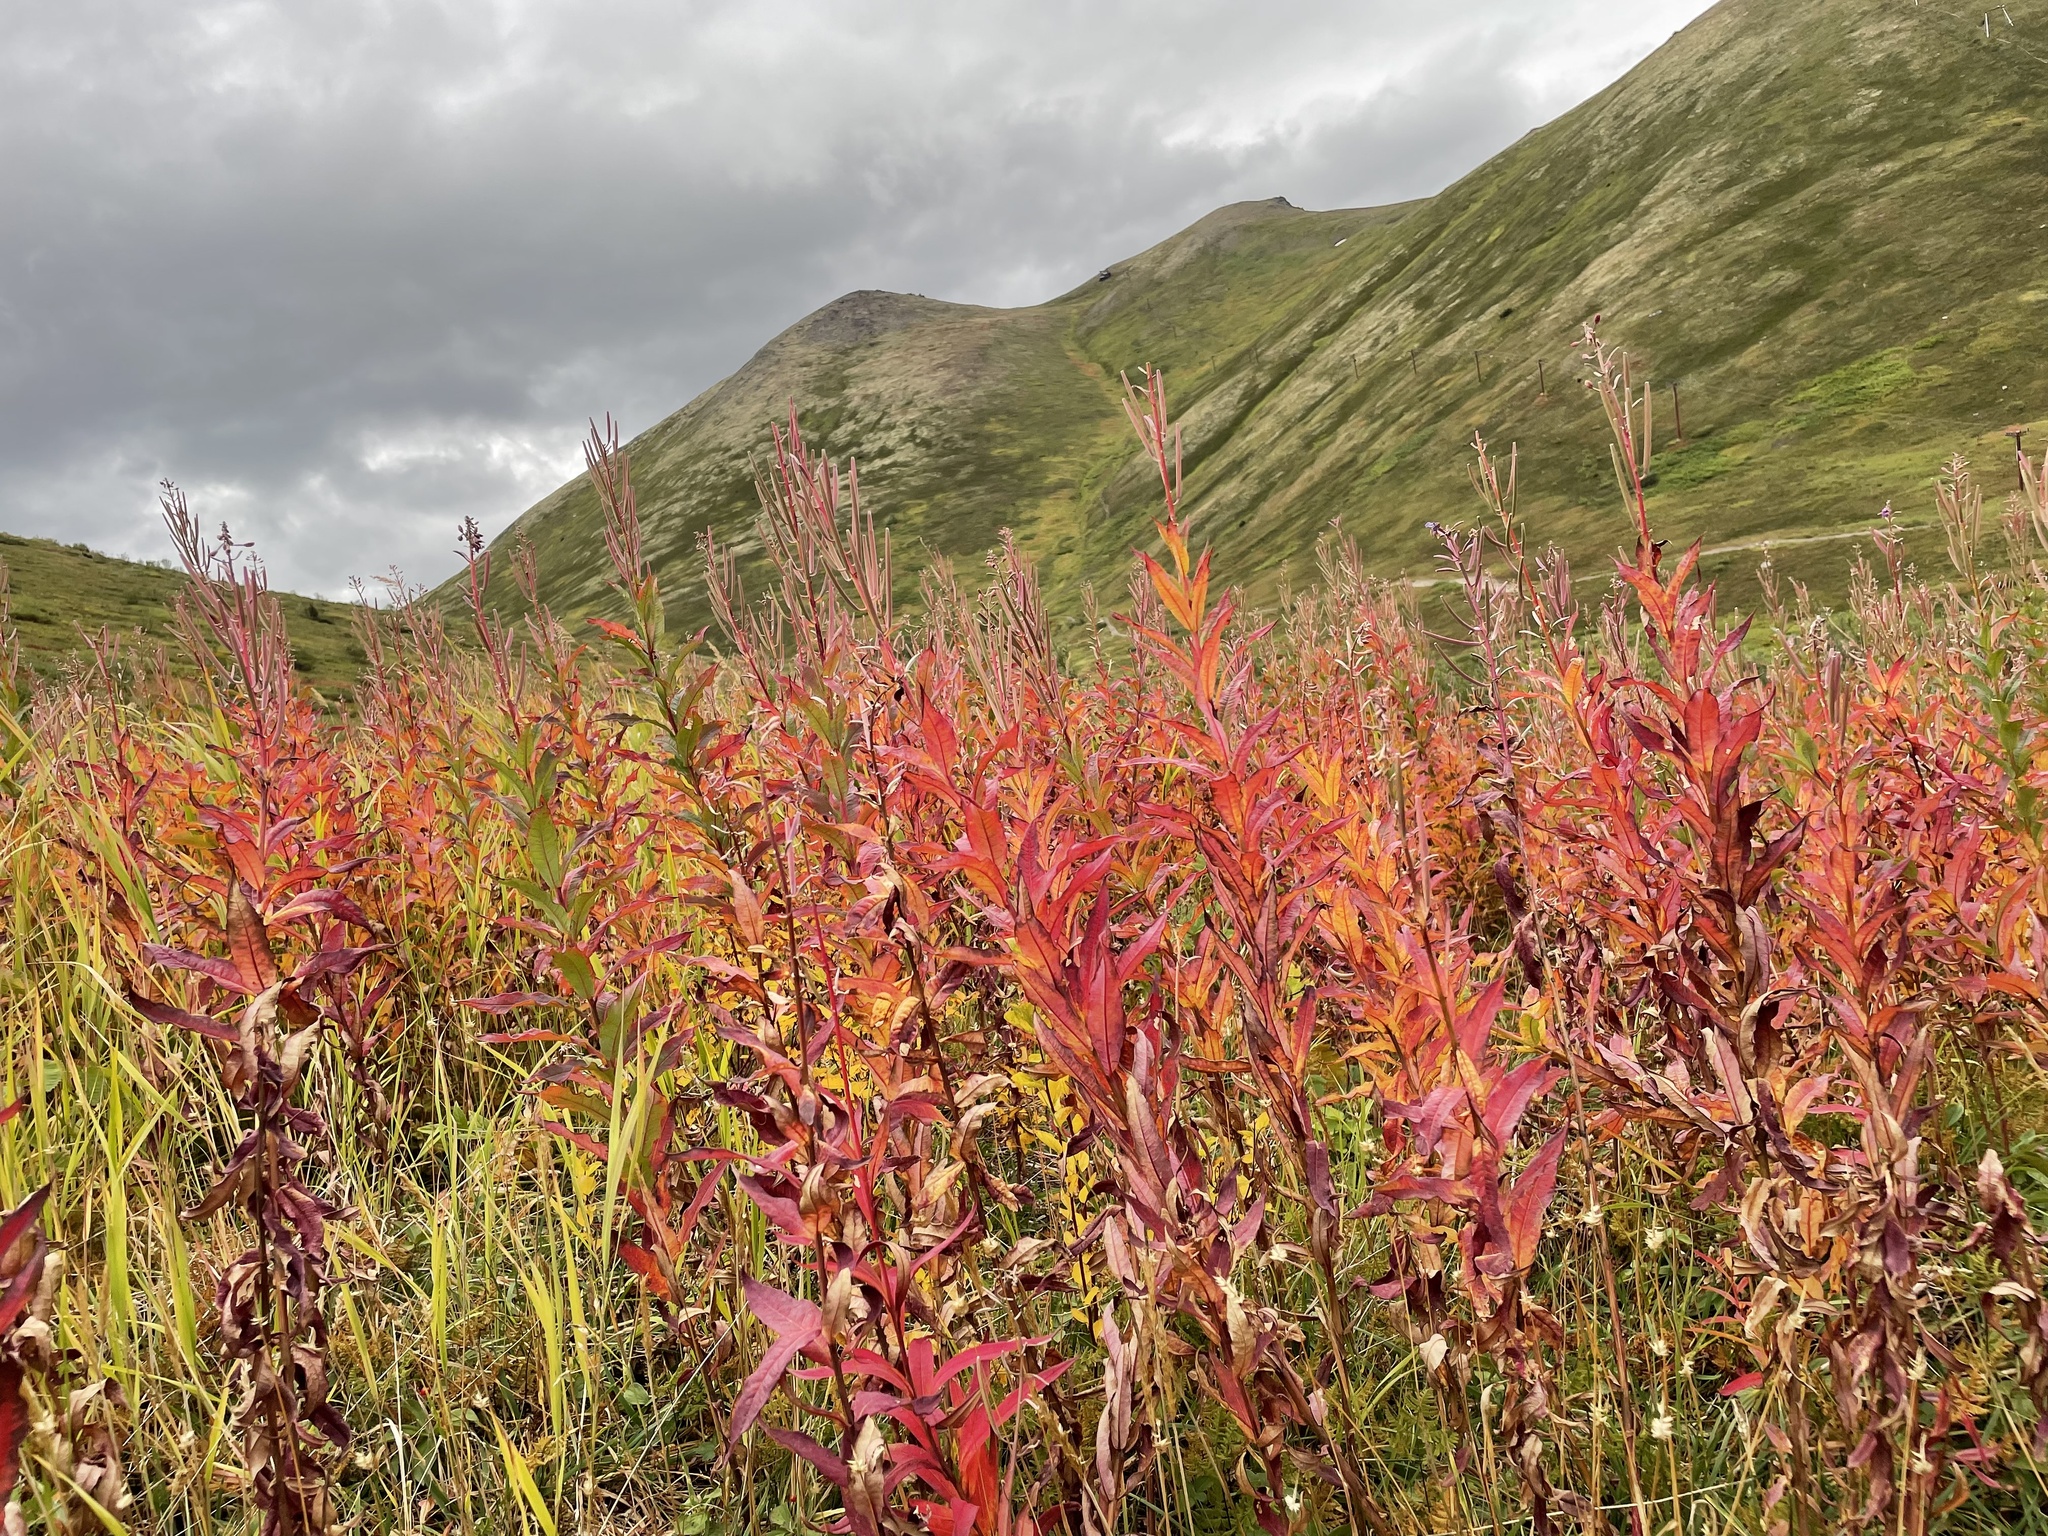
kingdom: Plantae
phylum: Tracheophyta
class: Magnoliopsida
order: Myrtales
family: Onagraceae
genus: Chamaenerion
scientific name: Chamaenerion angustifolium
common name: Fireweed
